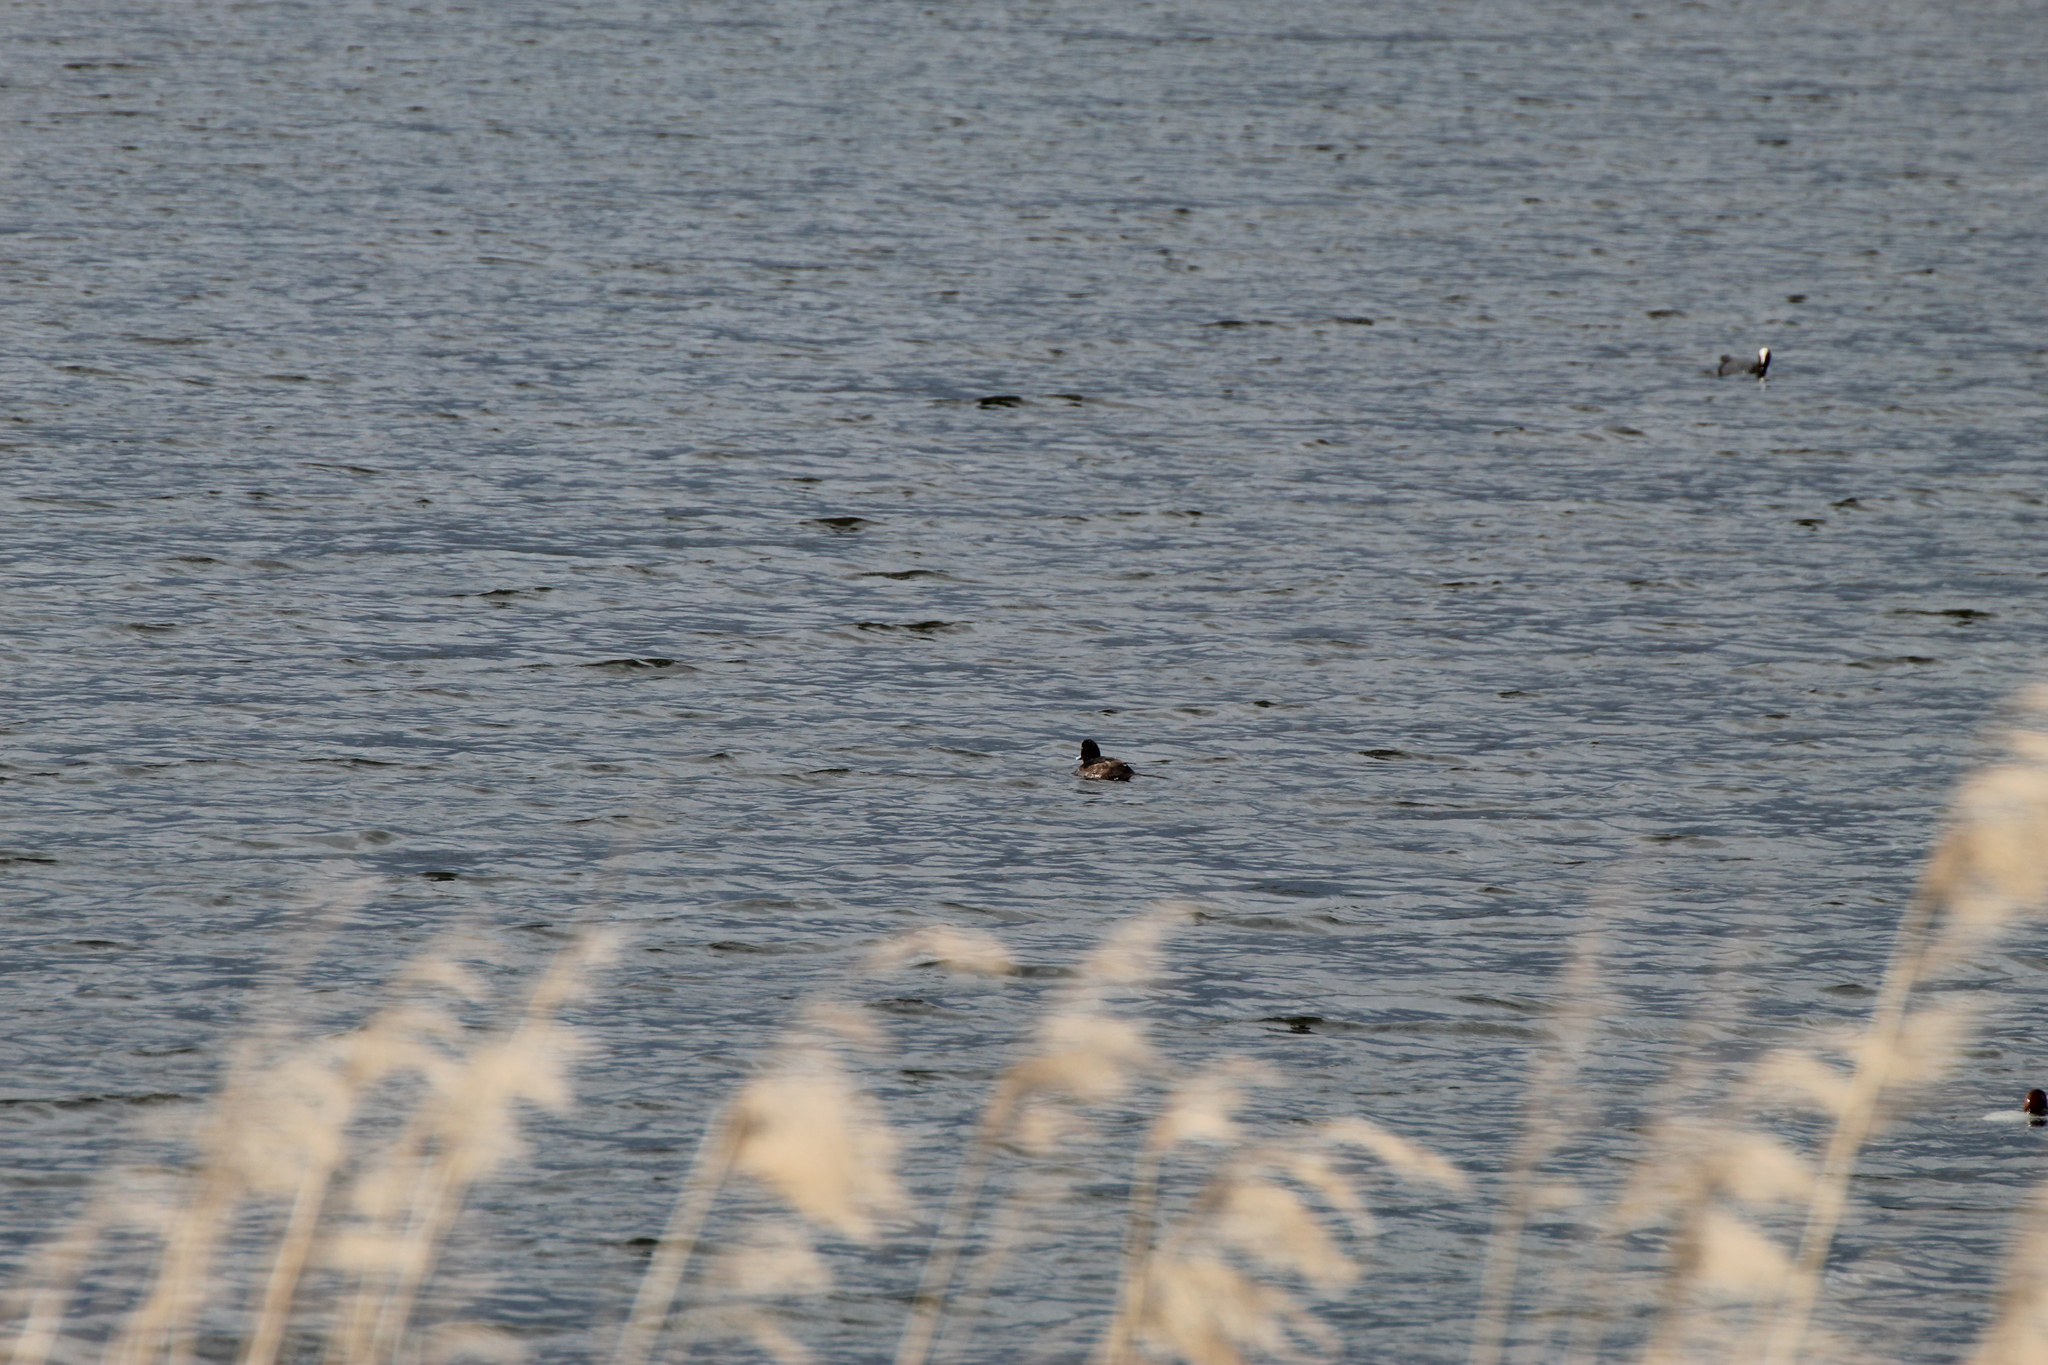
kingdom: Animalia
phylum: Chordata
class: Aves
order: Anseriformes
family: Anatidae
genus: Aythya
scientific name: Aythya fuligula
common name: Tufted duck
